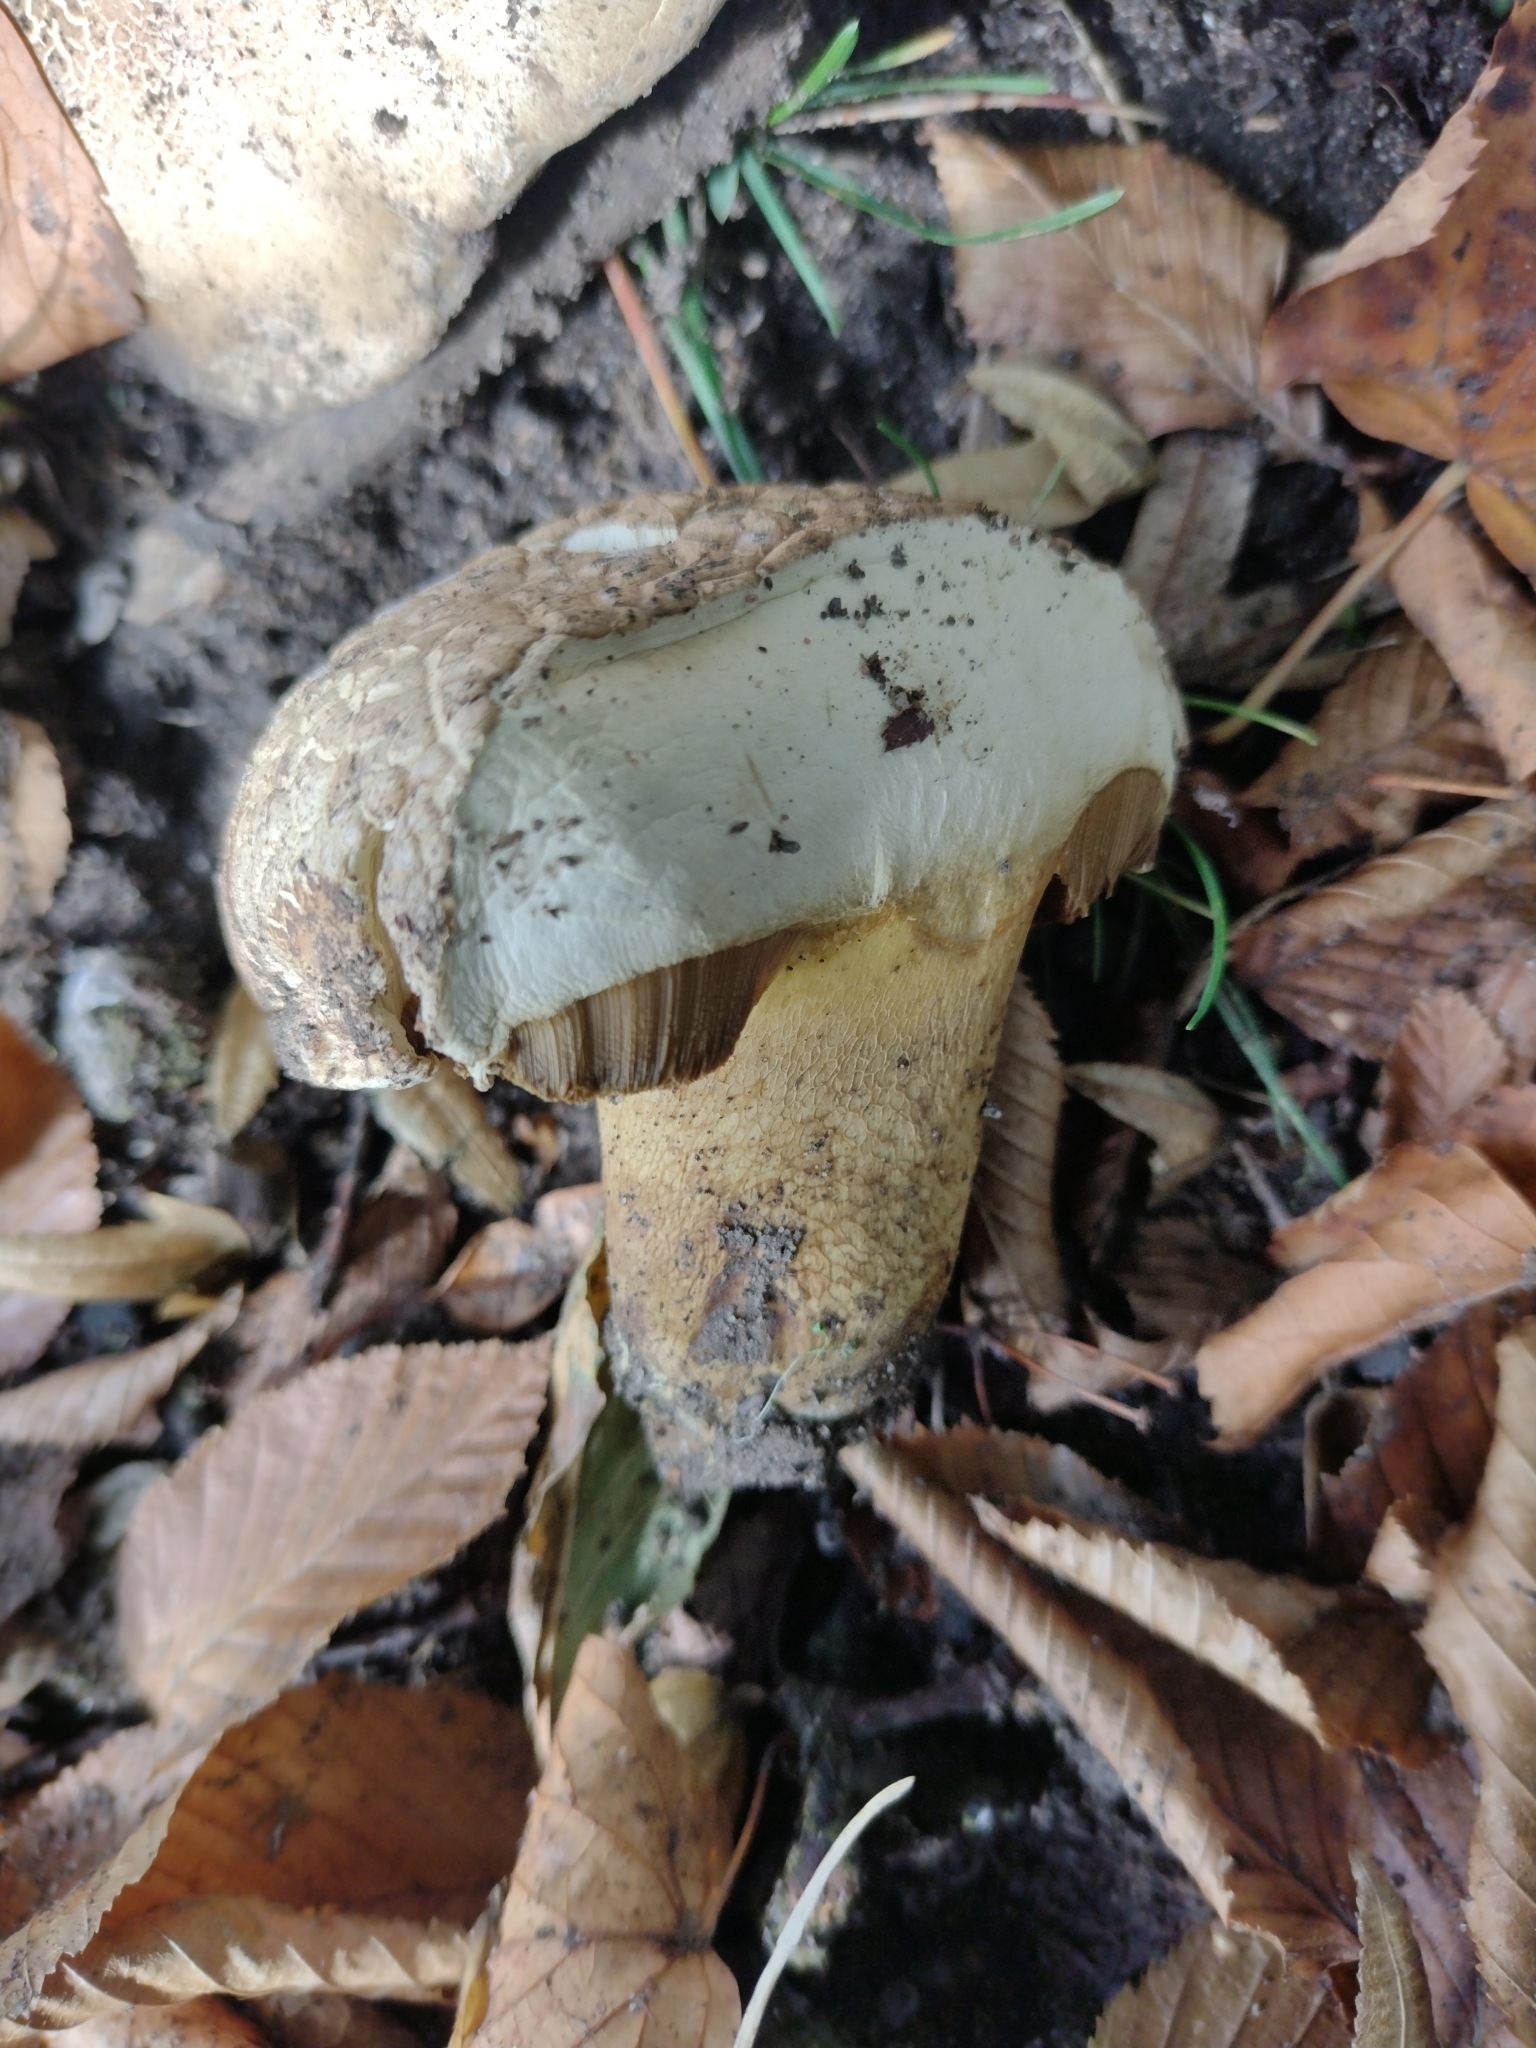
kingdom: Fungi
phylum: Basidiomycota
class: Agaricomycetes
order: Boletales
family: Boletaceae
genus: Caloboletus
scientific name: Caloboletus radicans
